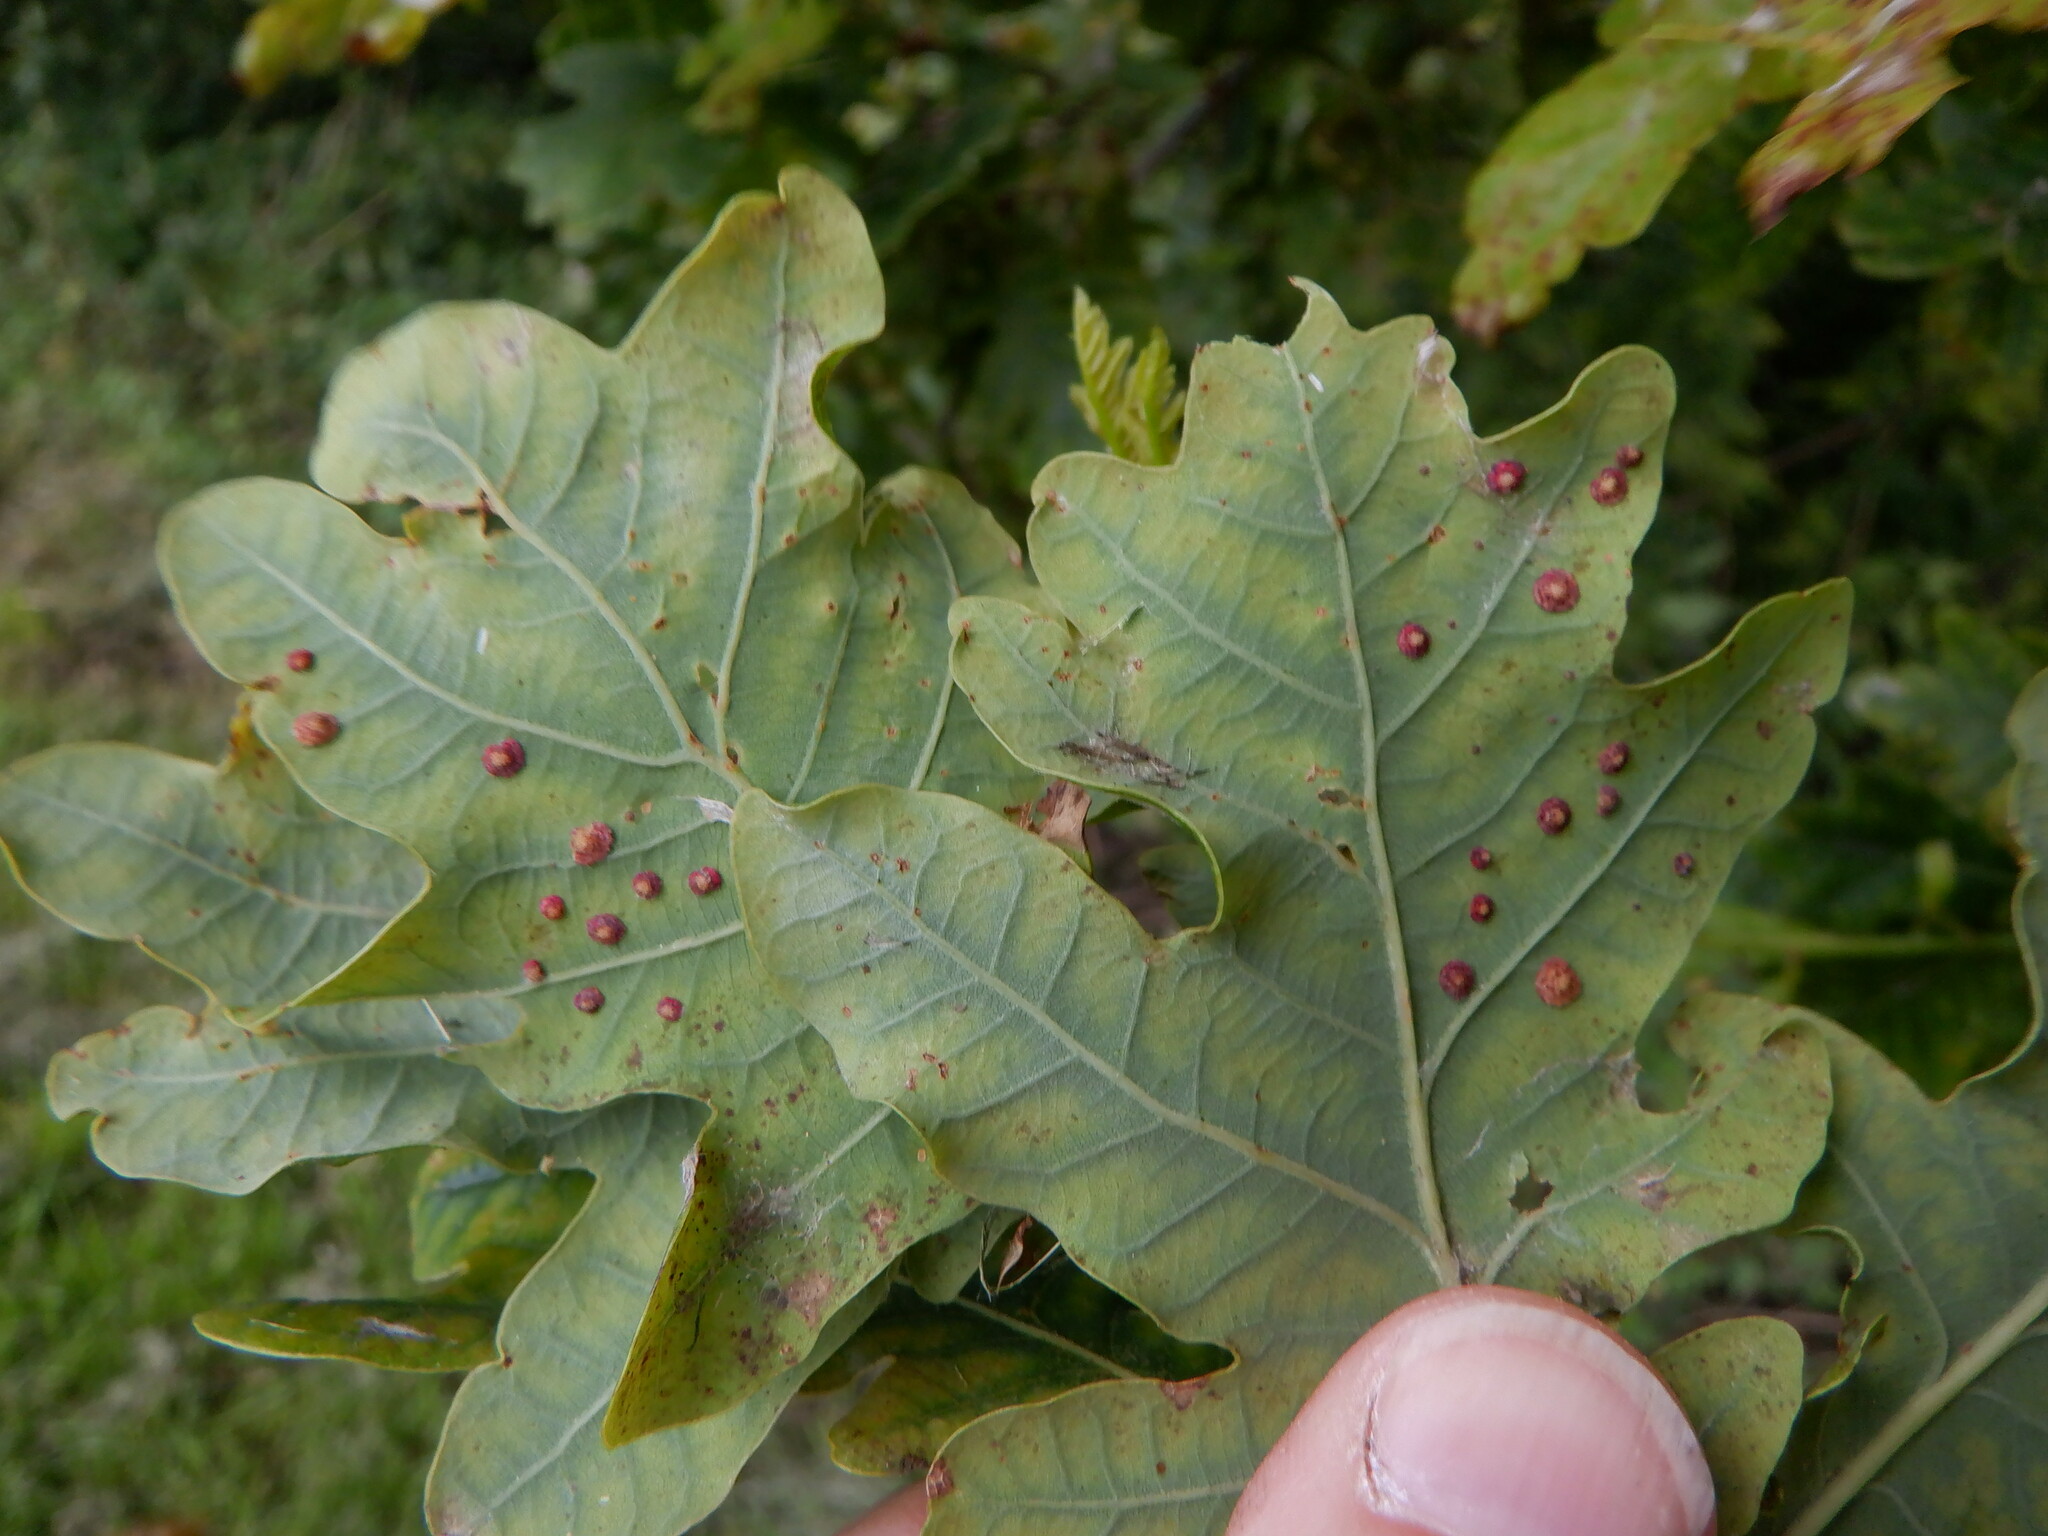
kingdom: Animalia
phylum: Arthropoda
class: Insecta
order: Hymenoptera
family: Cynipidae
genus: Neuroterus
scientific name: Neuroterus quercusbaccarum
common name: Common spangle gall
